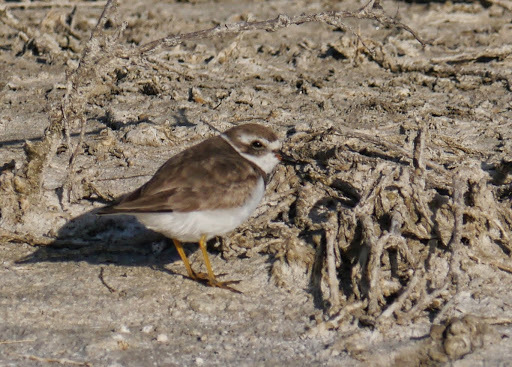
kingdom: Animalia
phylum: Chordata
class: Aves
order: Charadriiformes
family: Charadriidae
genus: Charadrius
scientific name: Charadrius semipalmatus
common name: Semipalmated plover
